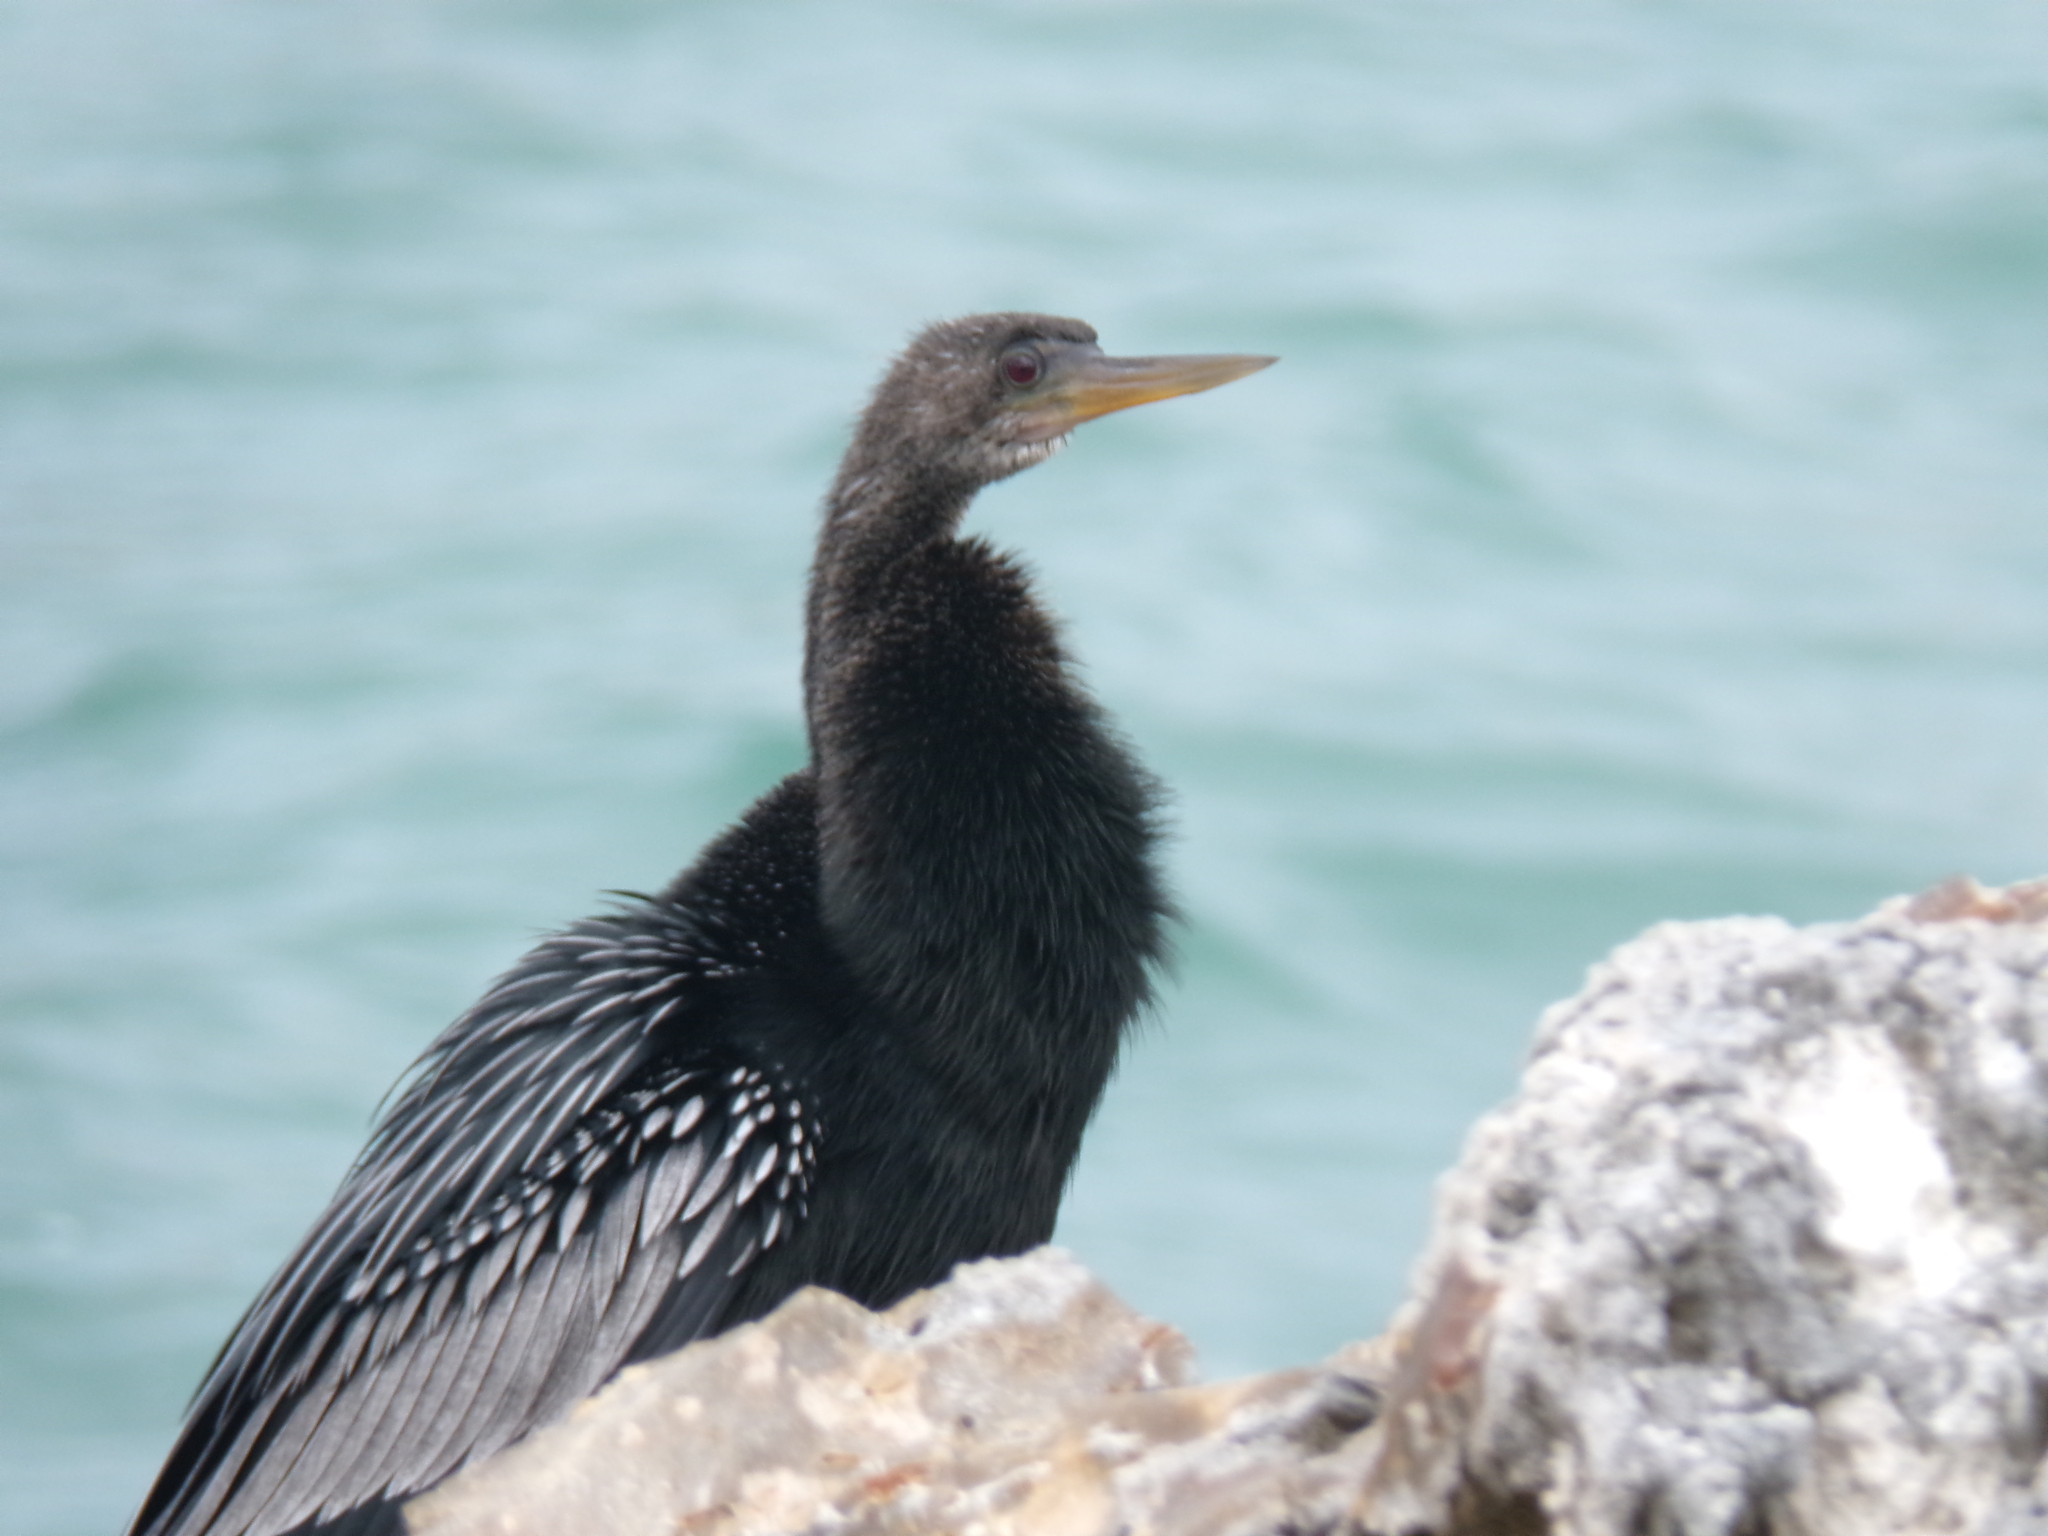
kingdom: Animalia
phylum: Chordata
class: Aves
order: Suliformes
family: Anhingidae
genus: Anhinga
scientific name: Anhinga anhinga
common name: Anhinga
